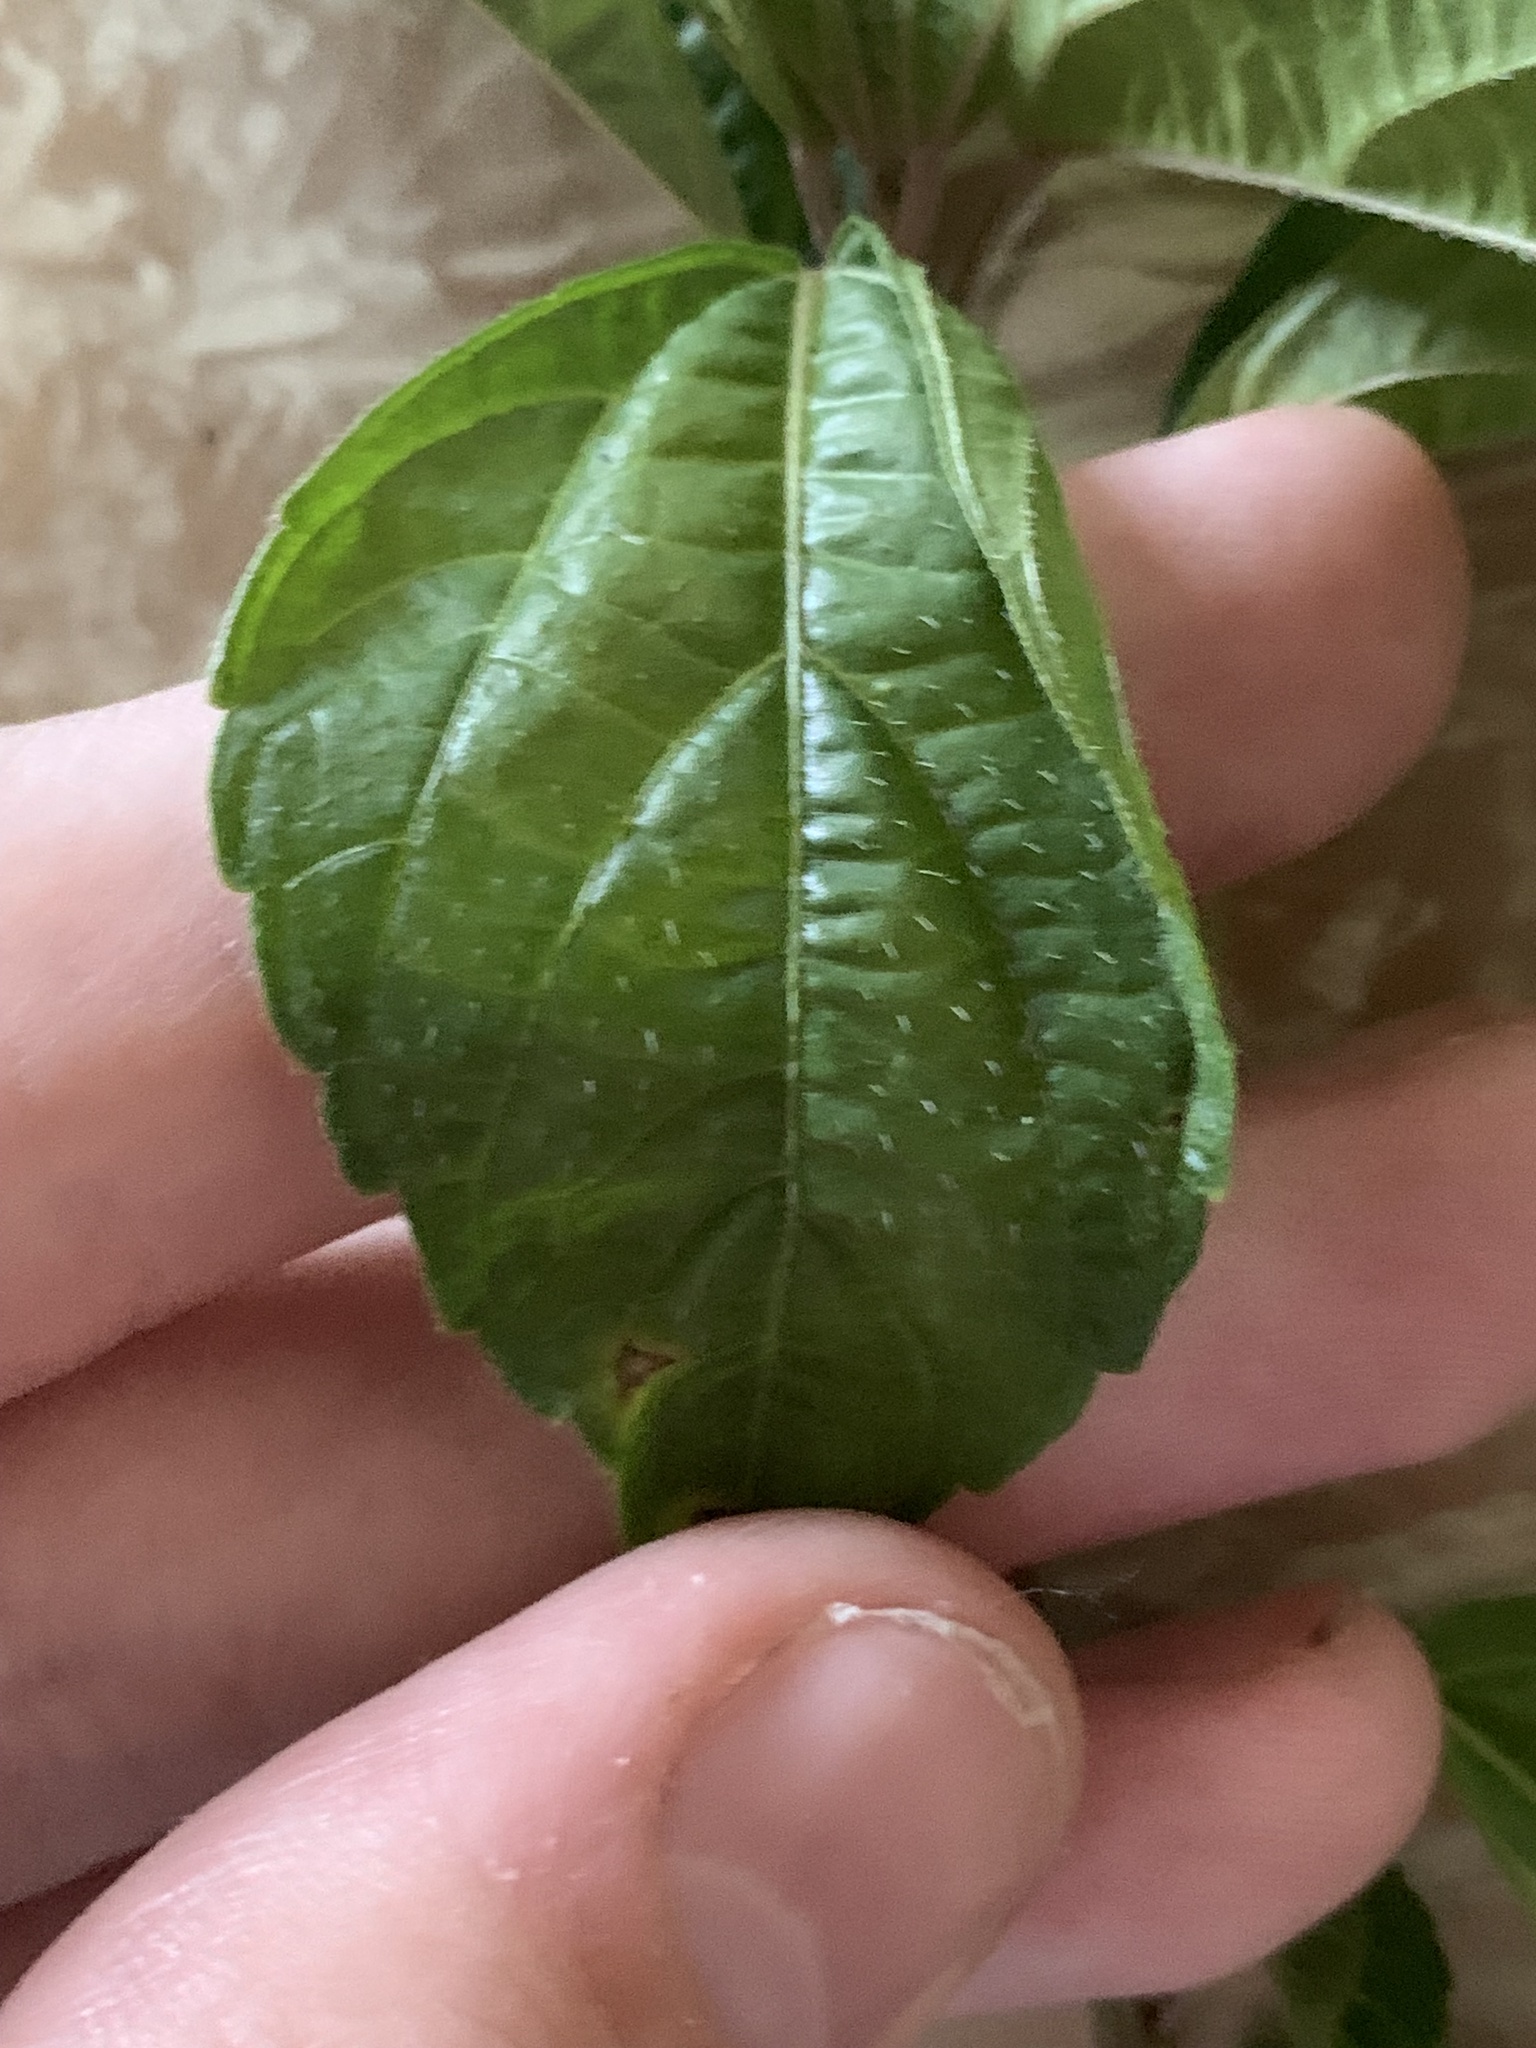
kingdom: Plantae
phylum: Tracheophyta
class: Magnoliopsida
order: Malpighiales
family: Euphorbiaceae
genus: Acalypha
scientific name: Acalypha australis
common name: Asian copperleaf
